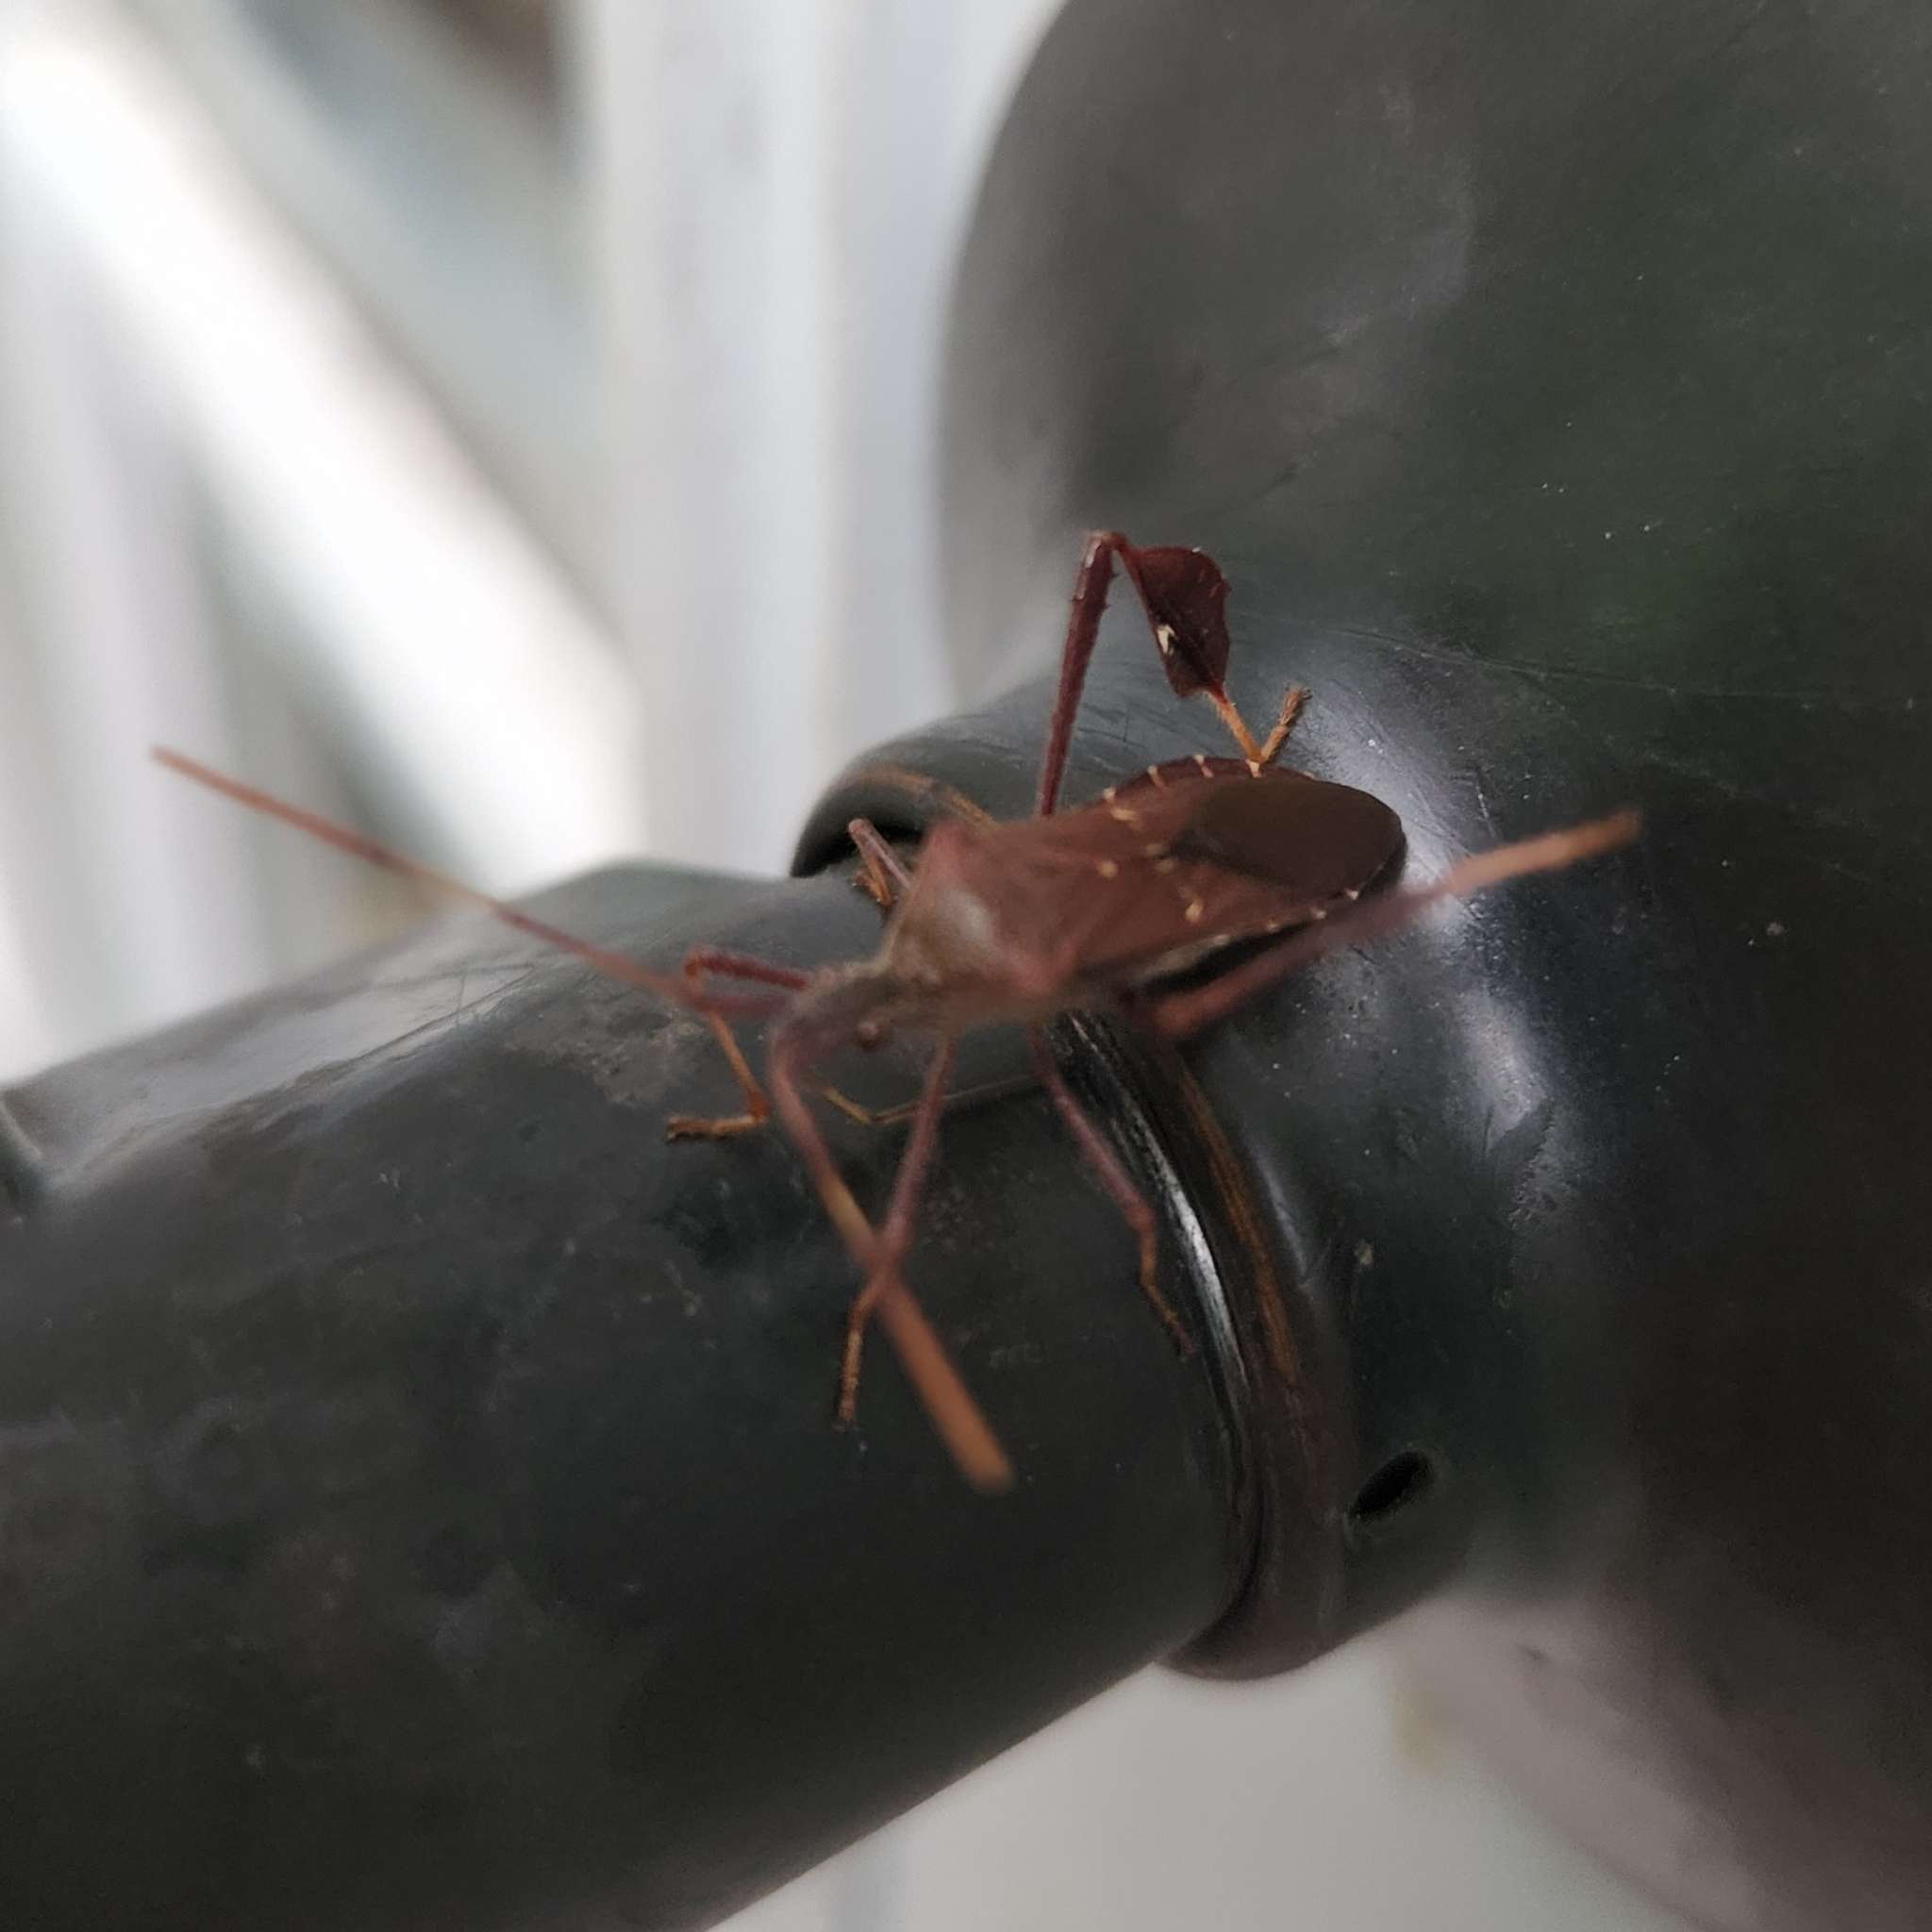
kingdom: Animalia
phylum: Arthropoda
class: Insecta
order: Hemiptera
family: Coreidae
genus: Leptoglossus
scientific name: Leptoglossus oppositus
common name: Northern leaf-footed bug
